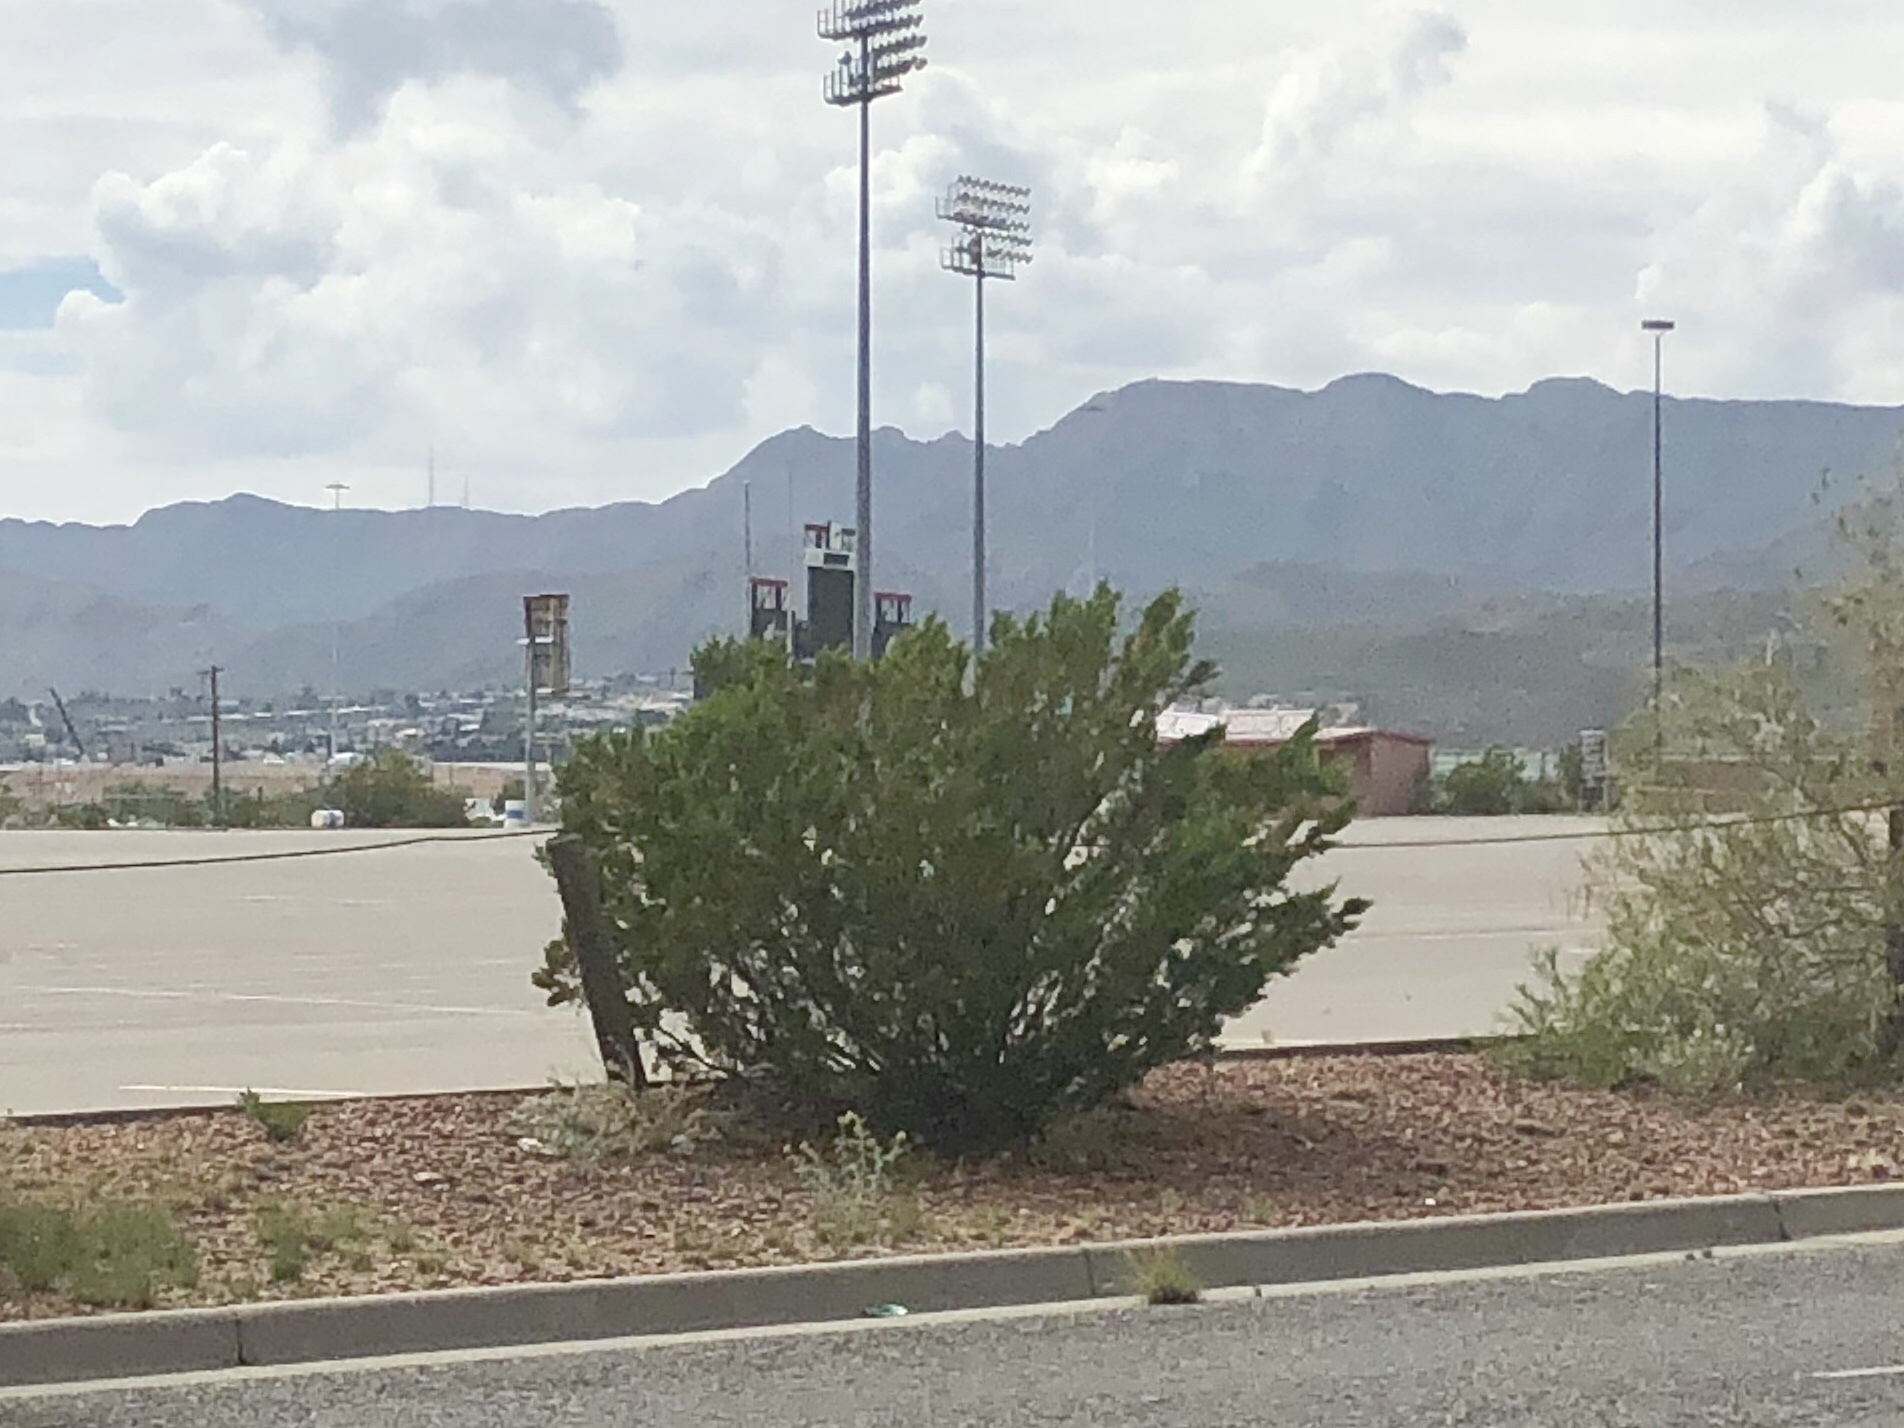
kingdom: Plantae
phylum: Tracheophyta
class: Magnoliopsida
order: Zygophyllales
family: Zygophyllaceae
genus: Larrea
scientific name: Larrea tridentata
